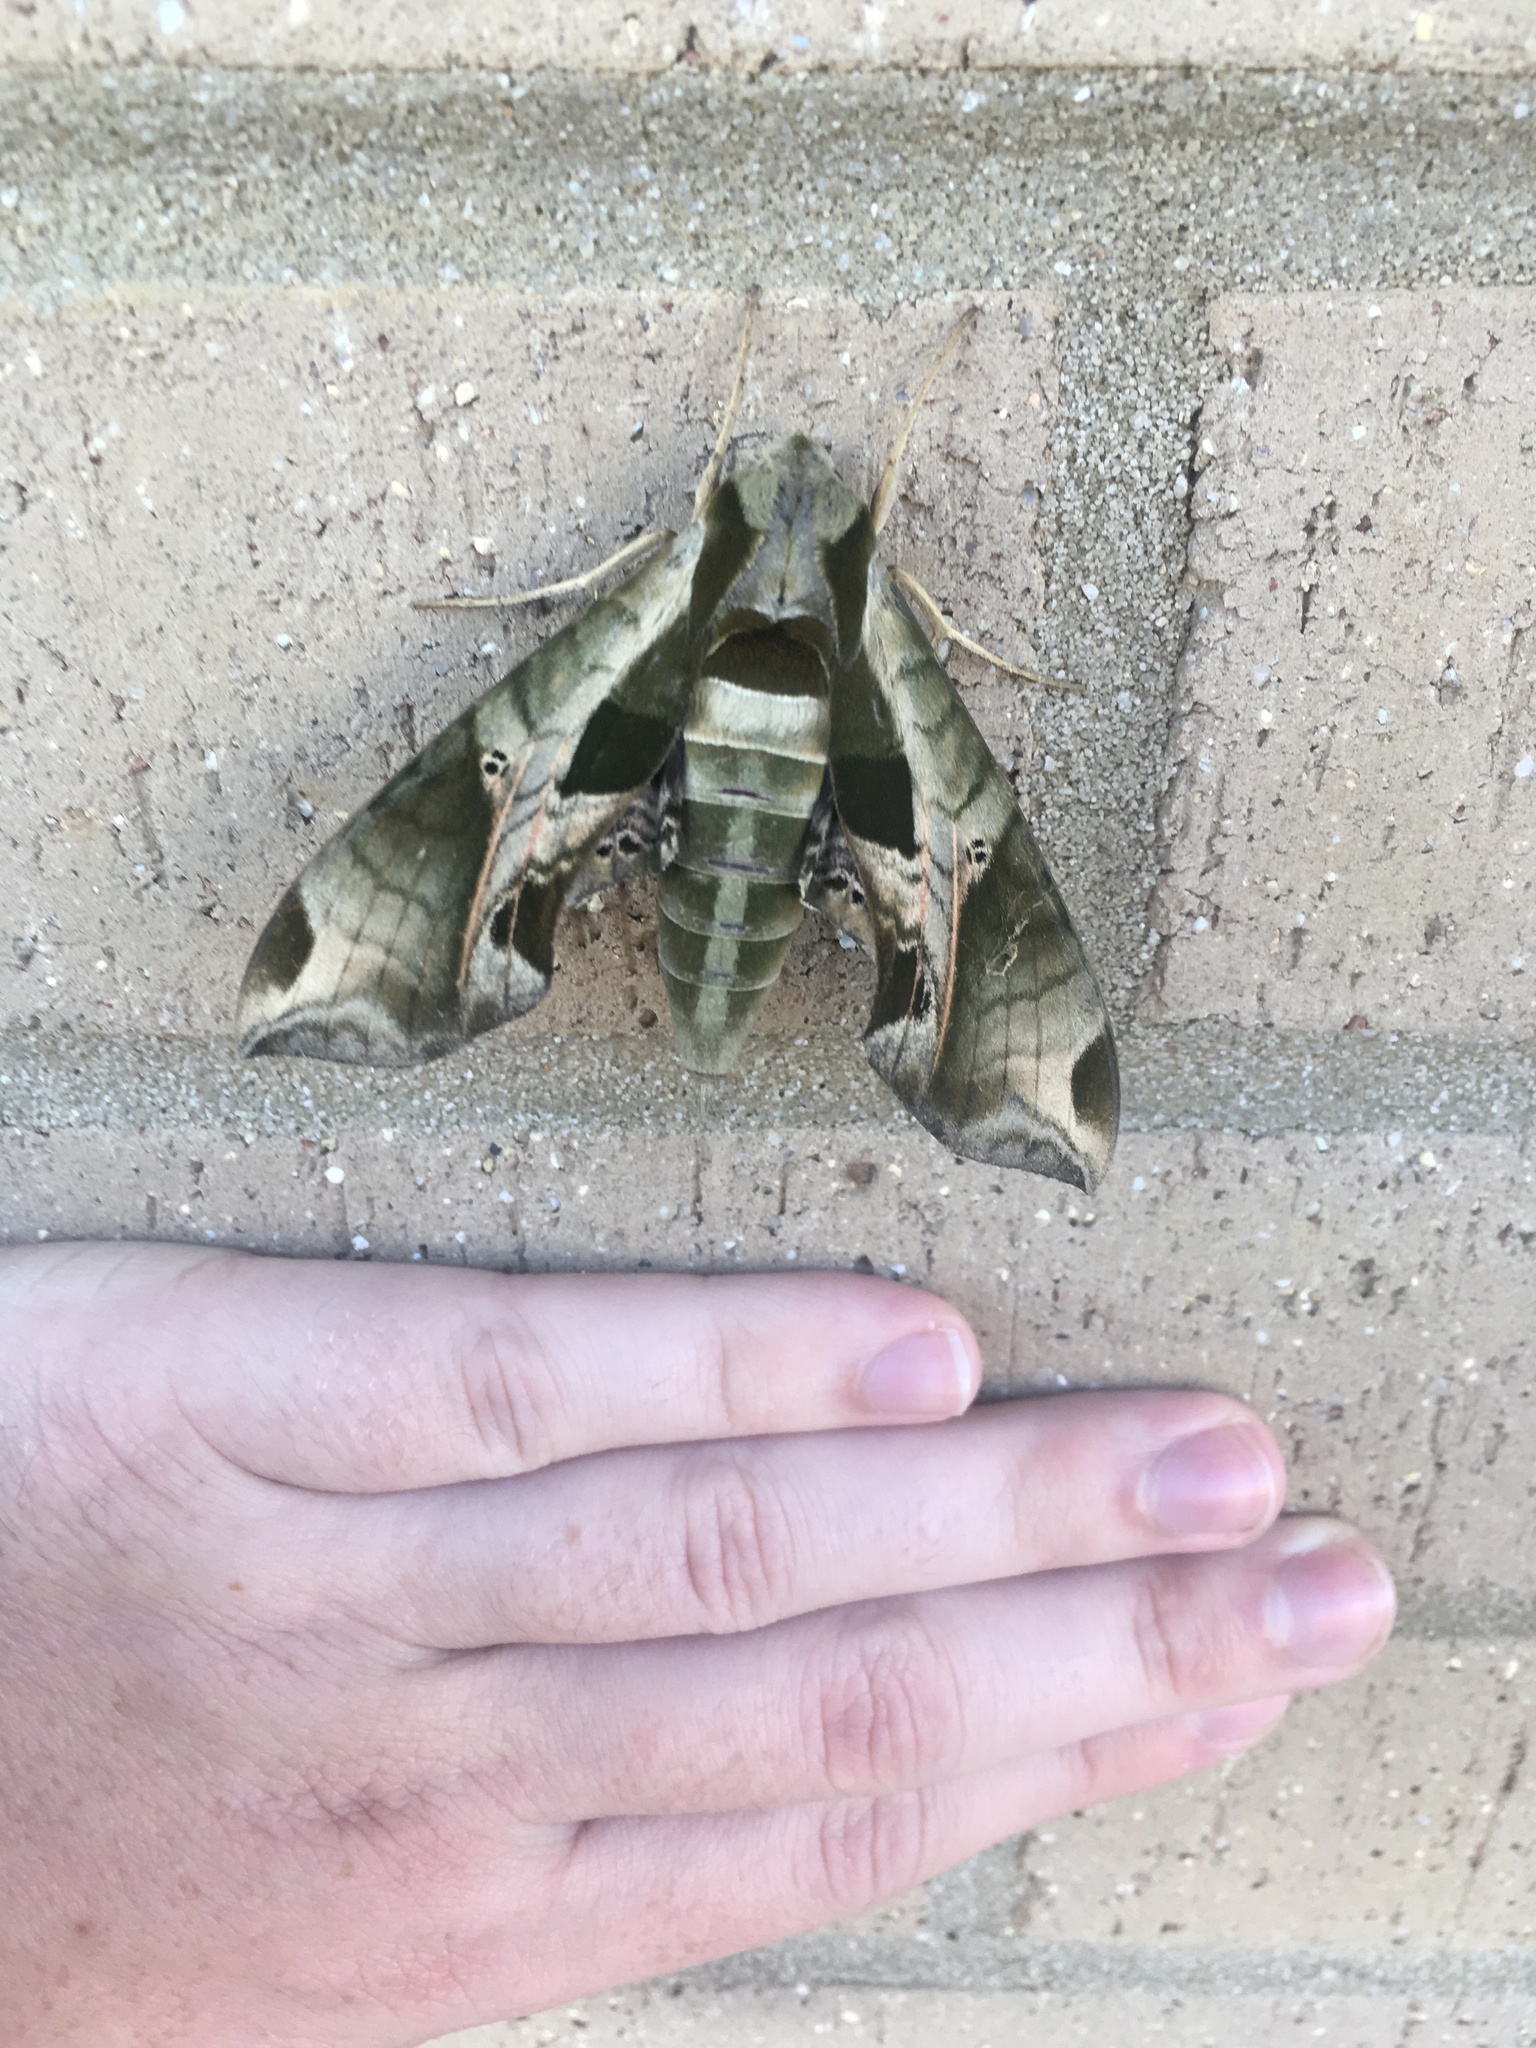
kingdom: Animalia
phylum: Arthropoda
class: Insecta
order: Lepidoptera
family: Sphingidae
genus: Eumorpha
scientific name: Eumorpha pandorus
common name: Pandora sphinx
